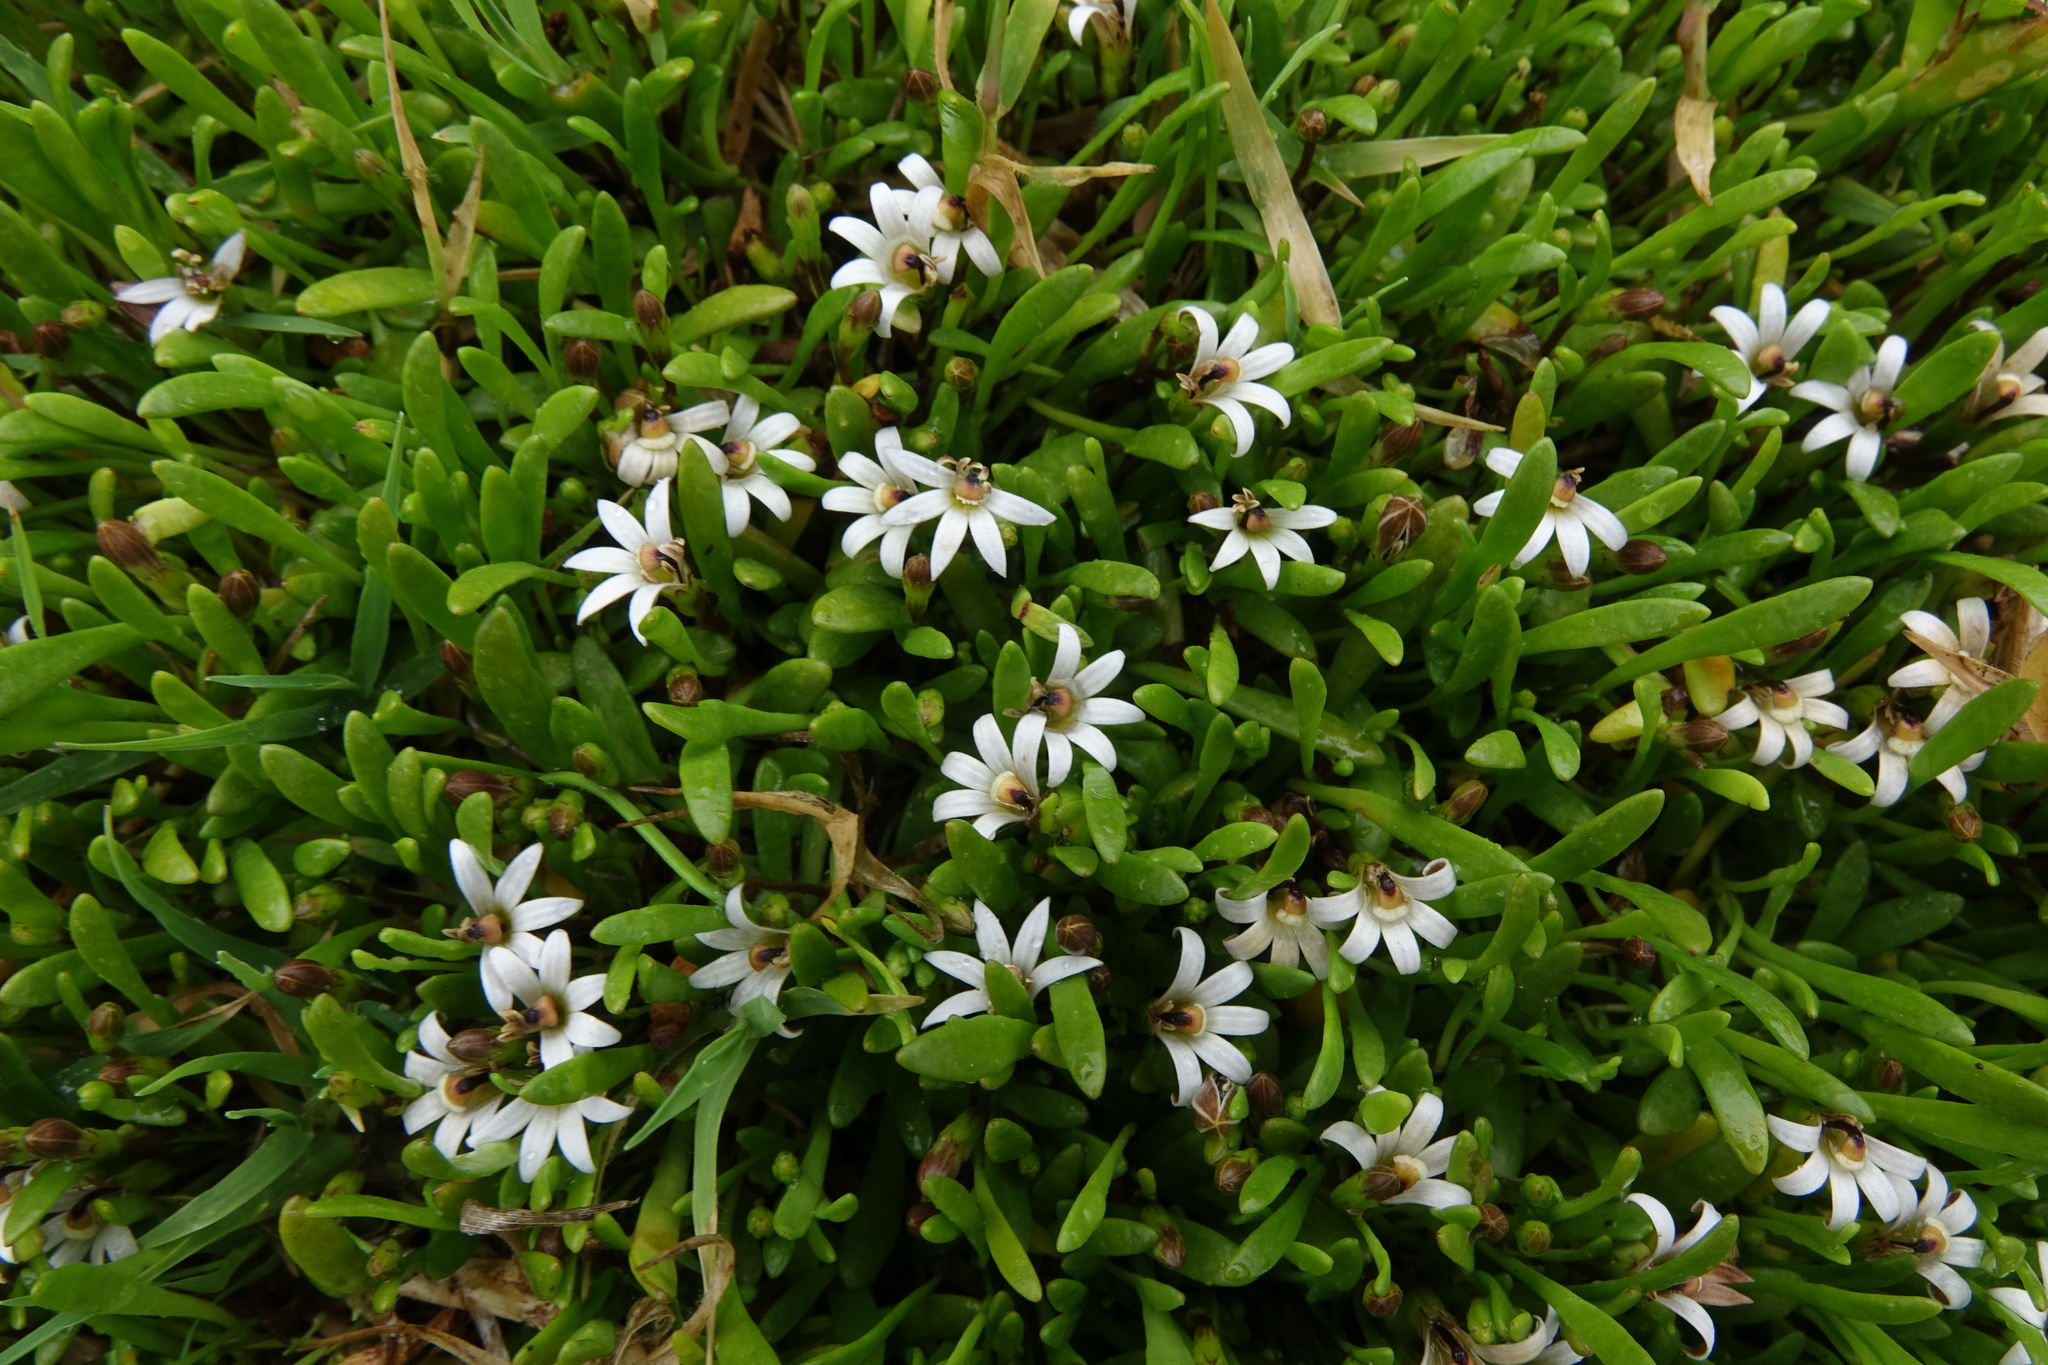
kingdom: Plantae
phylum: Tracheophyta
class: Magnoliopsida
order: Asterales
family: Goodeniaceae
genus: Goodenia
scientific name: Goodenia radicans
